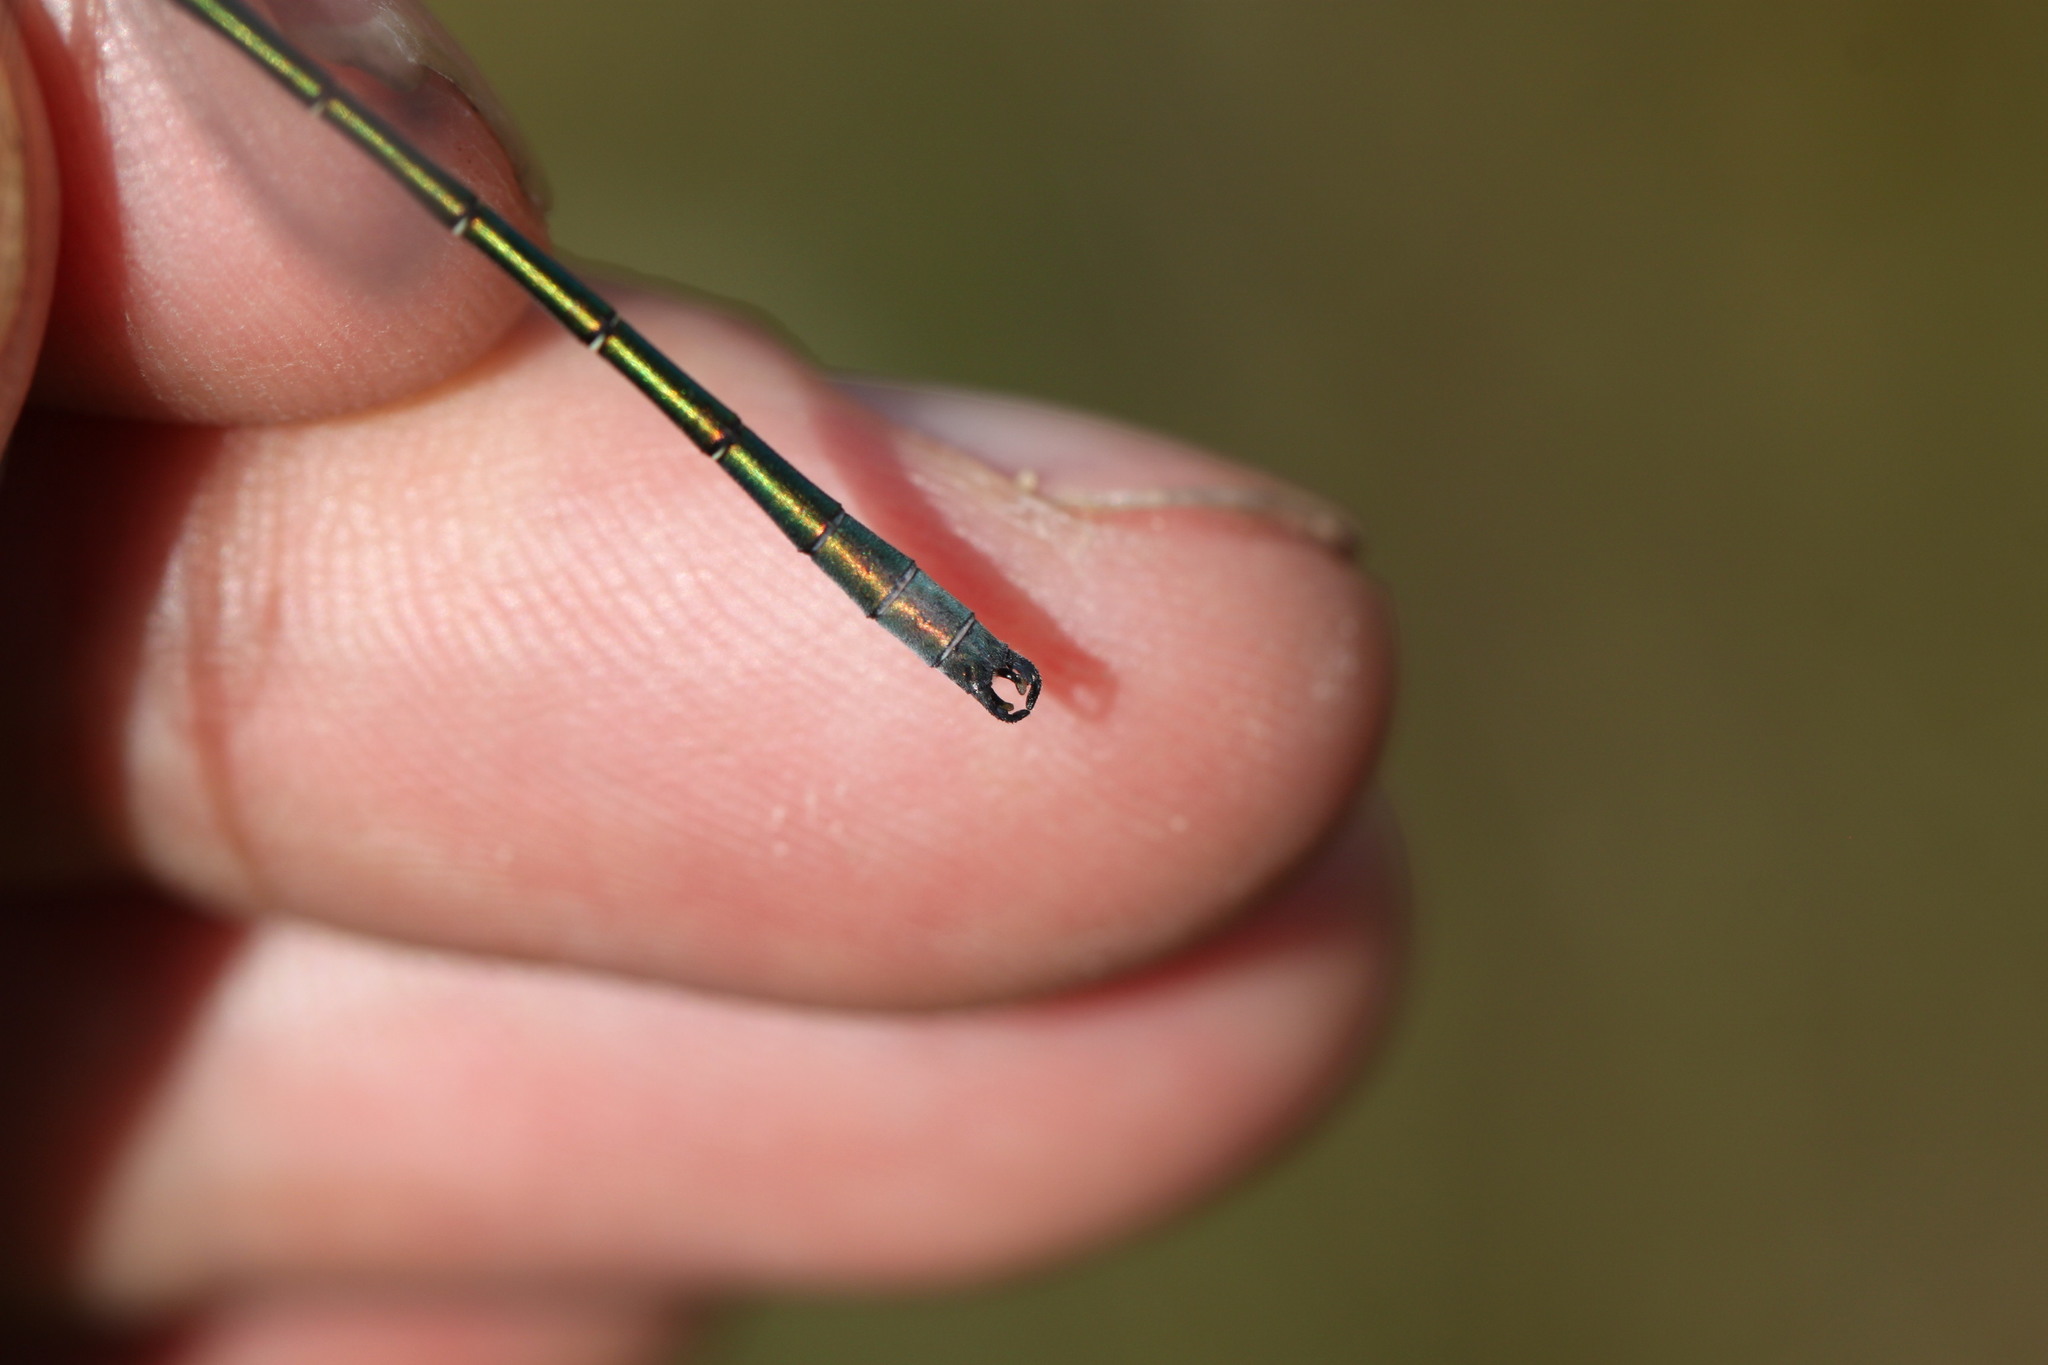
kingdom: Animalia
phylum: Arthropoda
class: Insecta
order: Odonata
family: Lestidae
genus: Lestes
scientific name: Lestes dryas
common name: Scarce emerald damselfly
